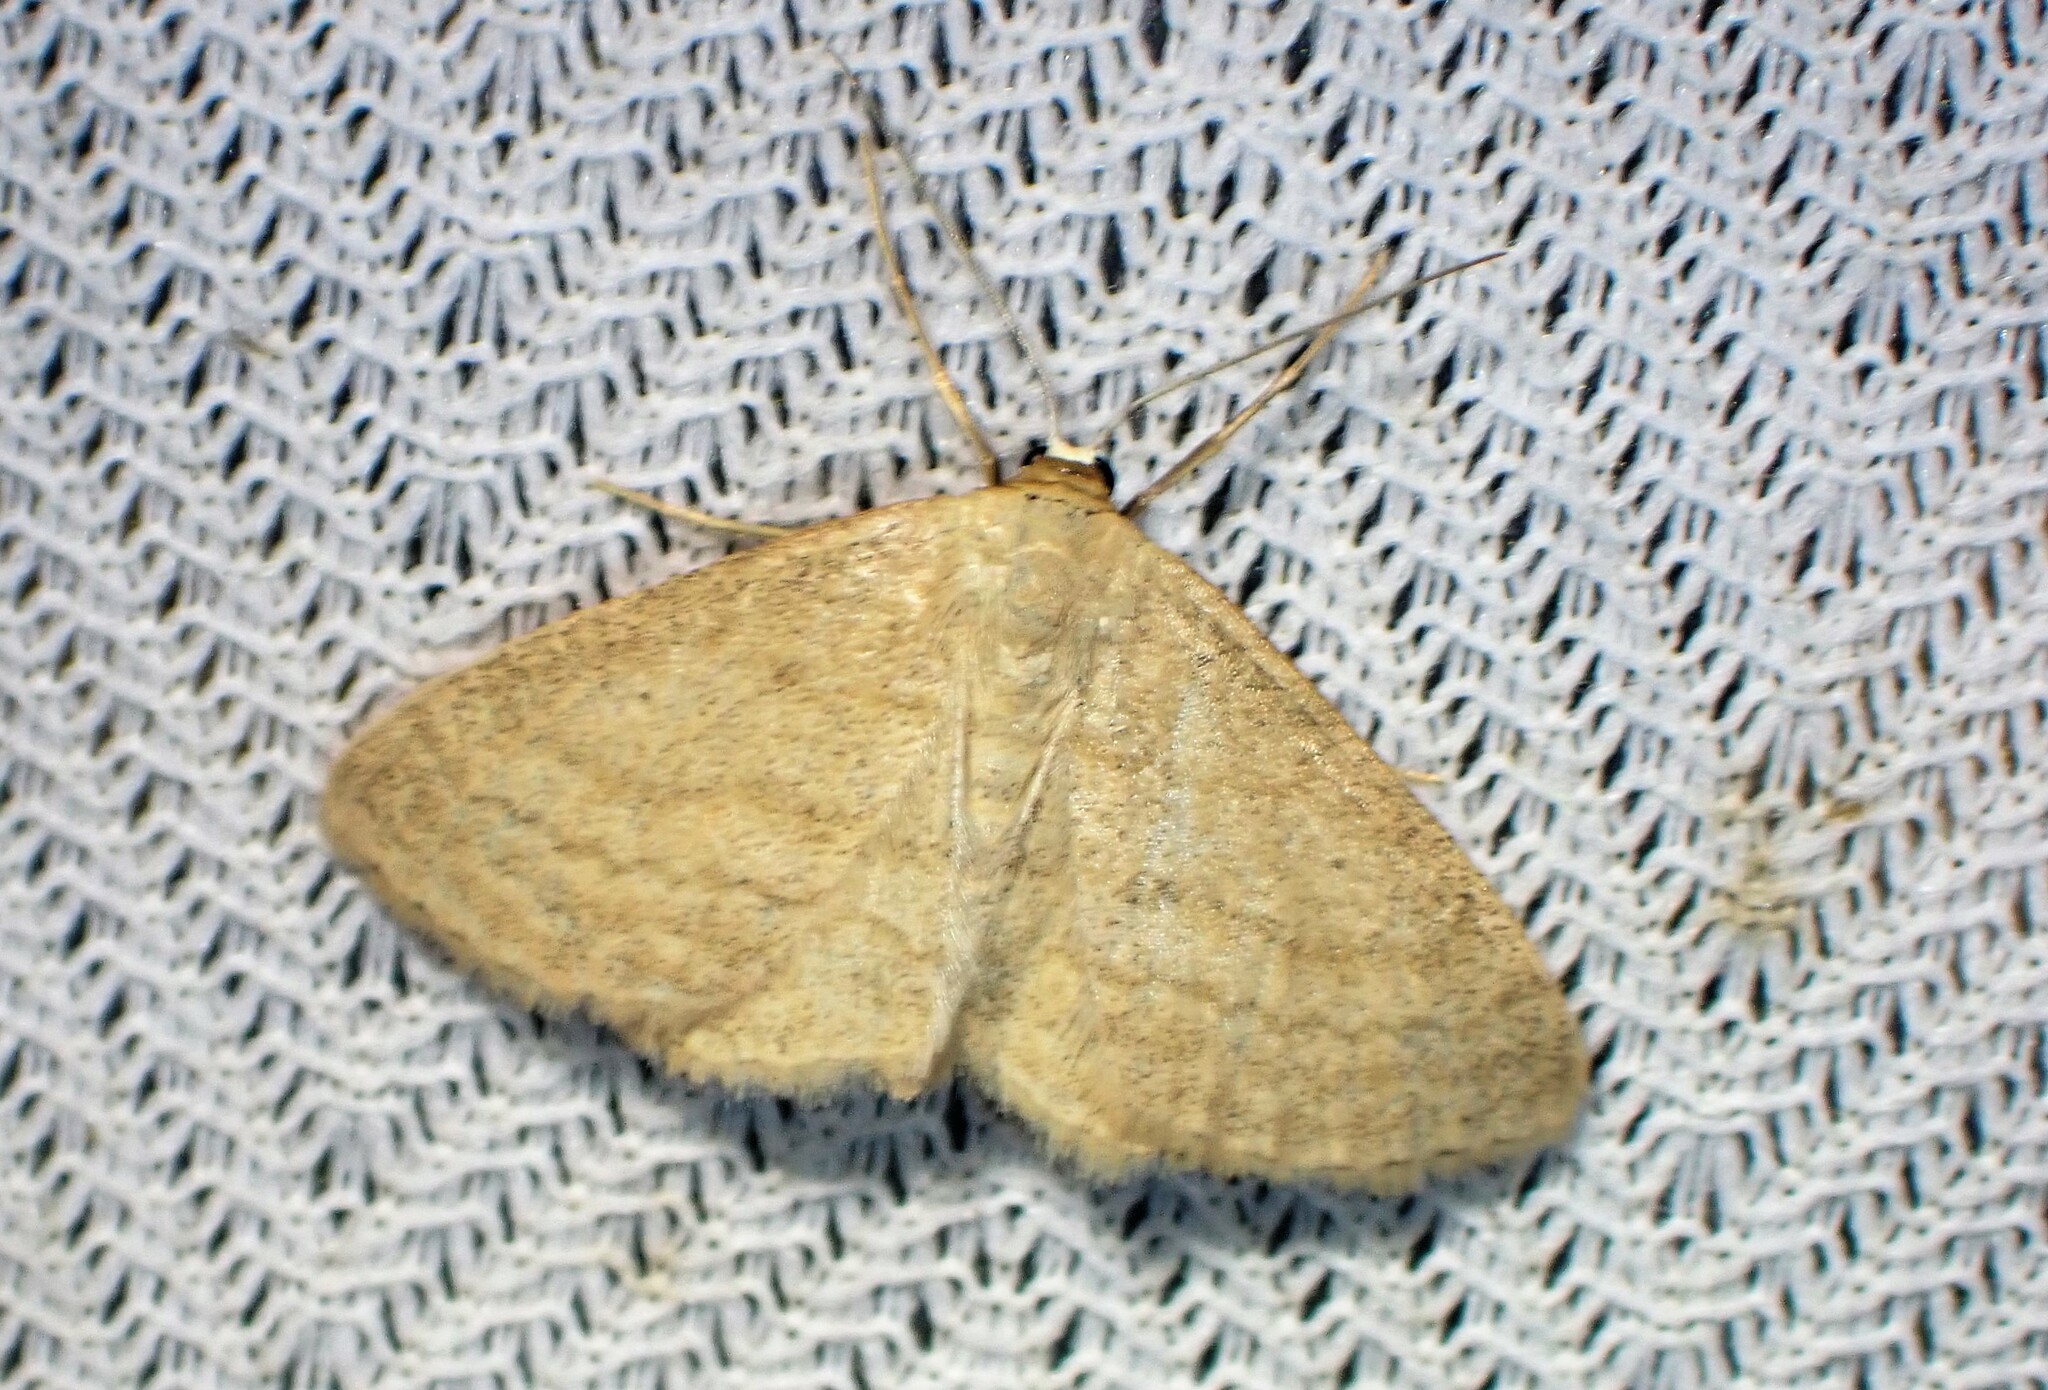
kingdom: Animalia
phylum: Arthropoda
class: Insecta
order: Lepidoptera
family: Geometridae
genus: Scopula
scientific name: Scopula inductata
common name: Soft-lined wave
